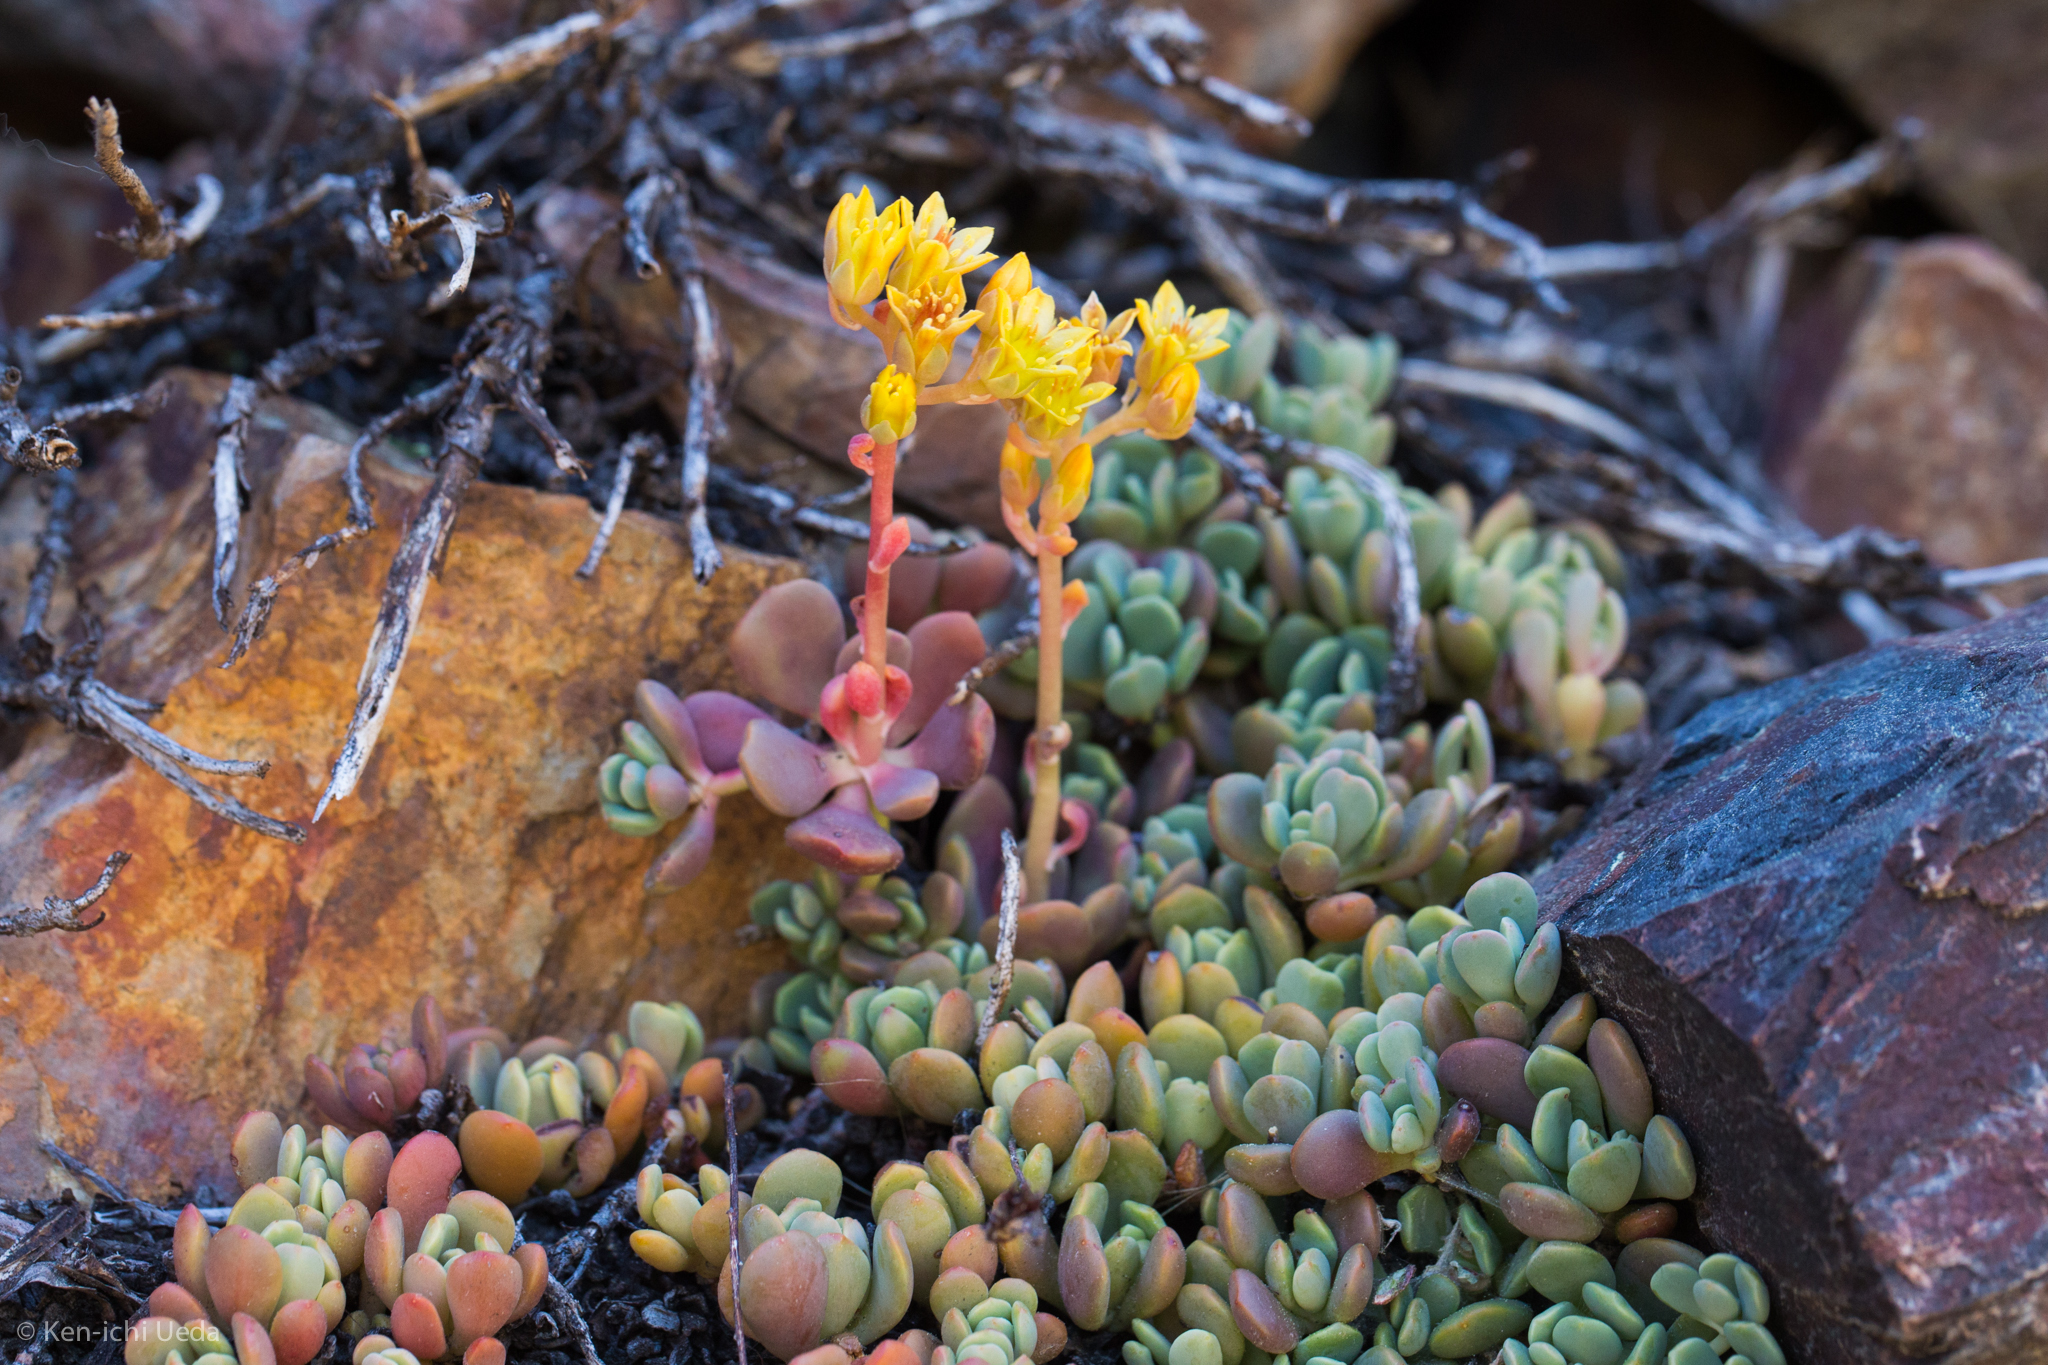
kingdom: Plantae
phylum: Tracheophyta
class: Magnoliopsida
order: Saxifragales
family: Crassulaceae
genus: Sedum
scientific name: Sedum obtusatum
